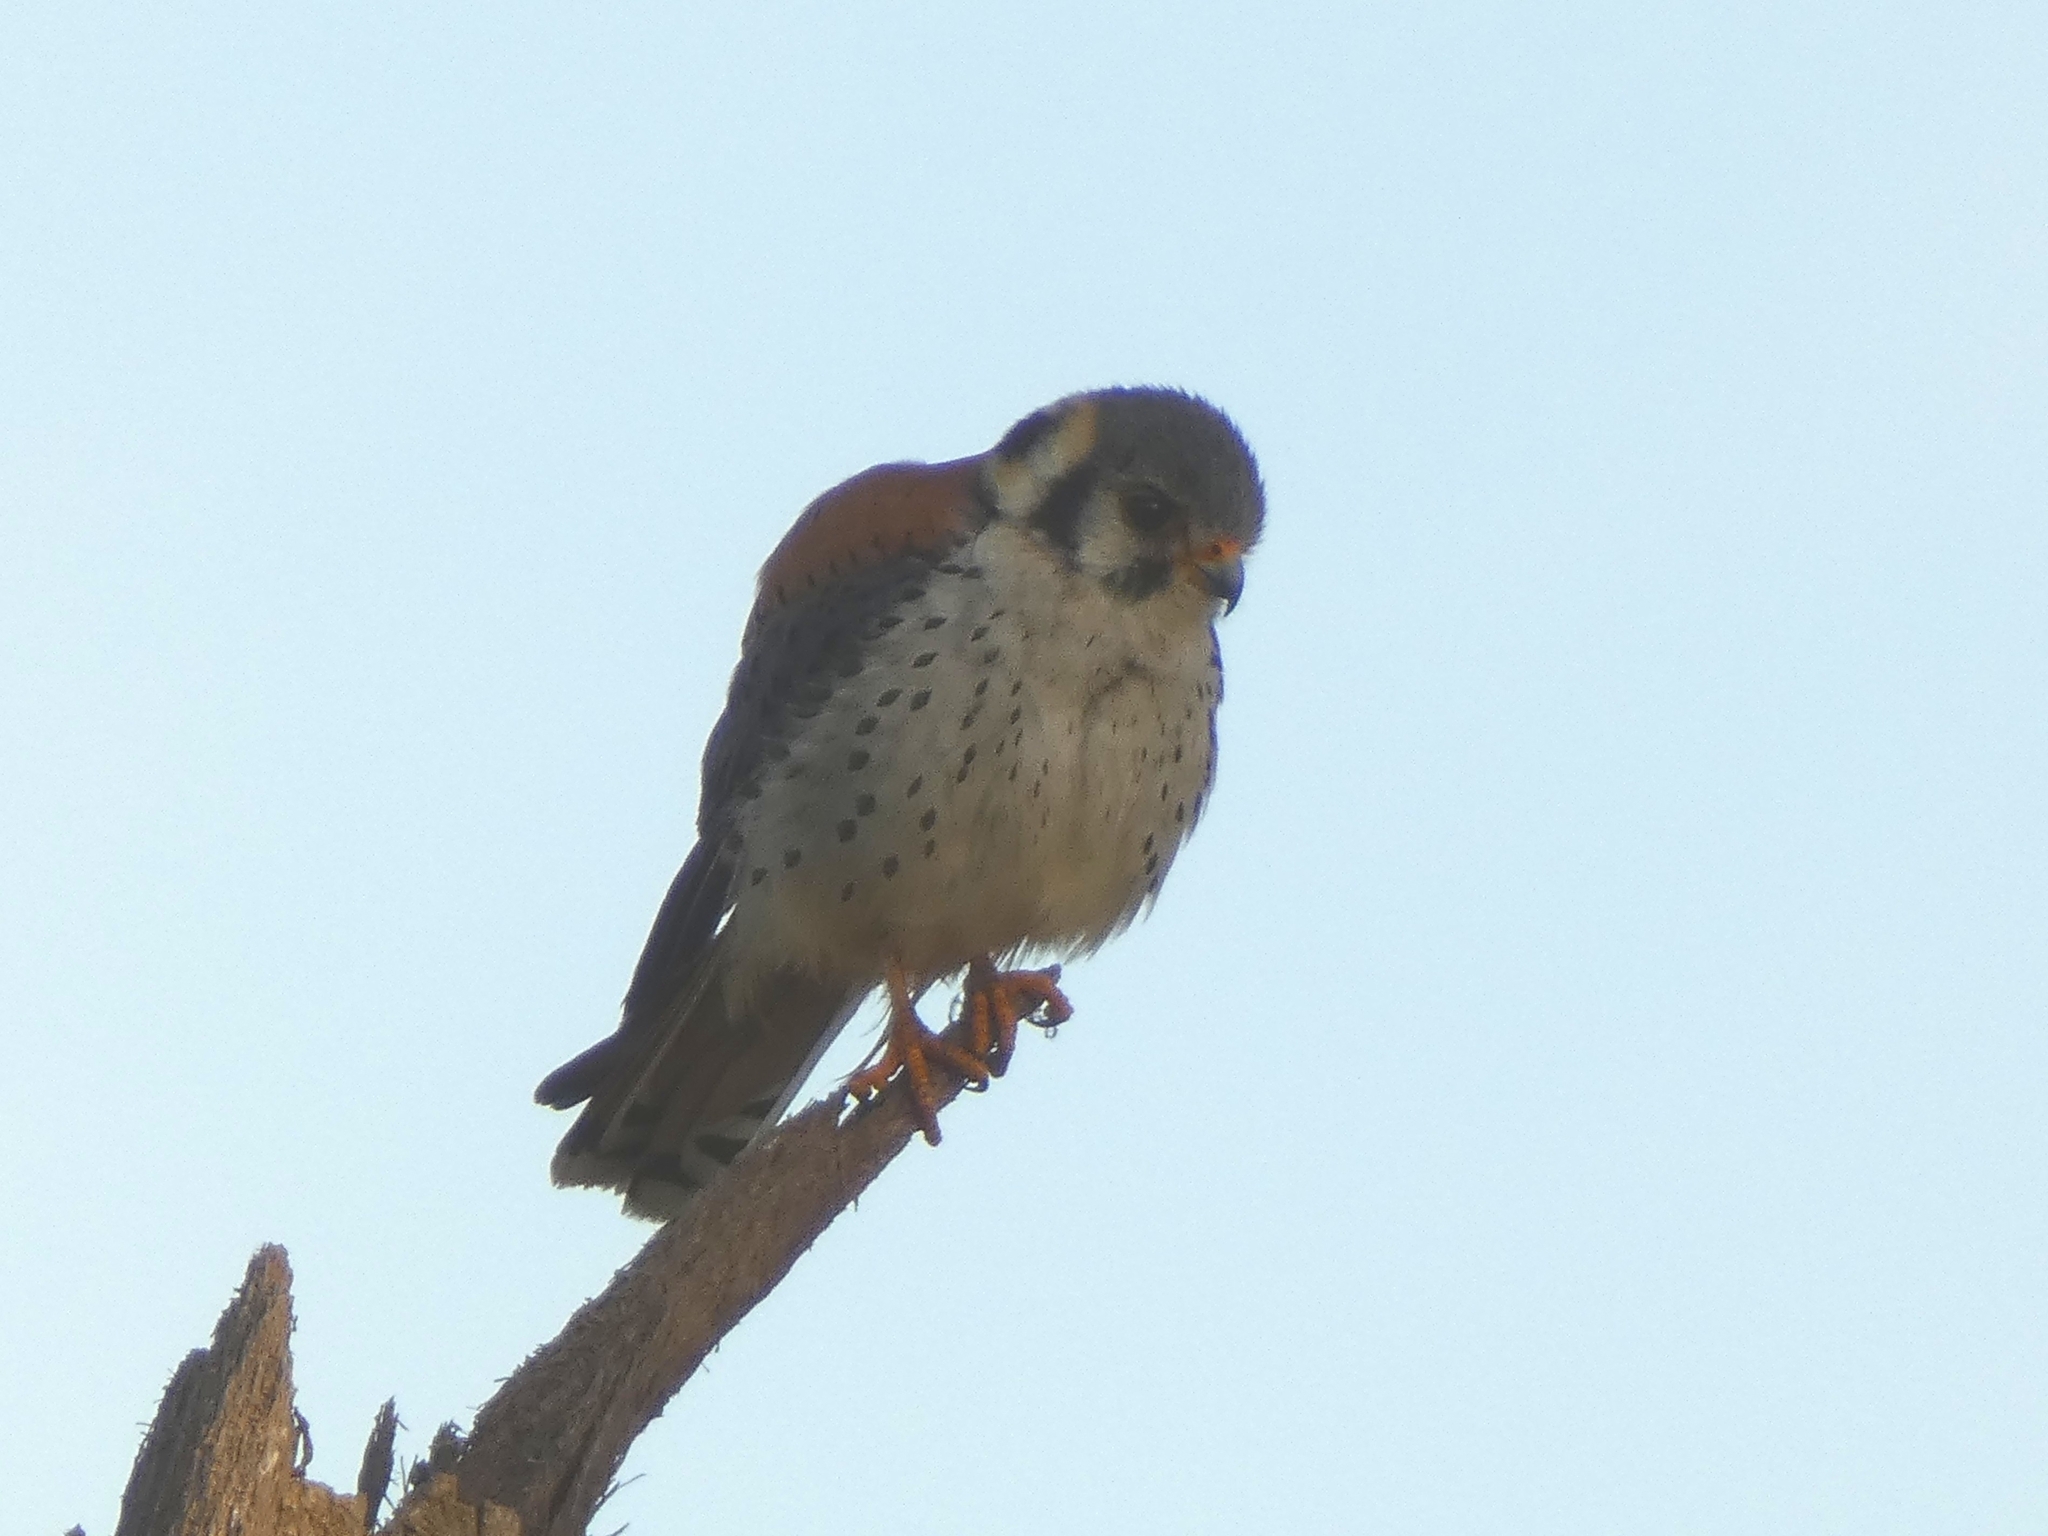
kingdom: Animalia
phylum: Chordata
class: Aves
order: Falconiformes
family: Falconidae
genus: Falco
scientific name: Falco sparverius
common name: American kestrel
